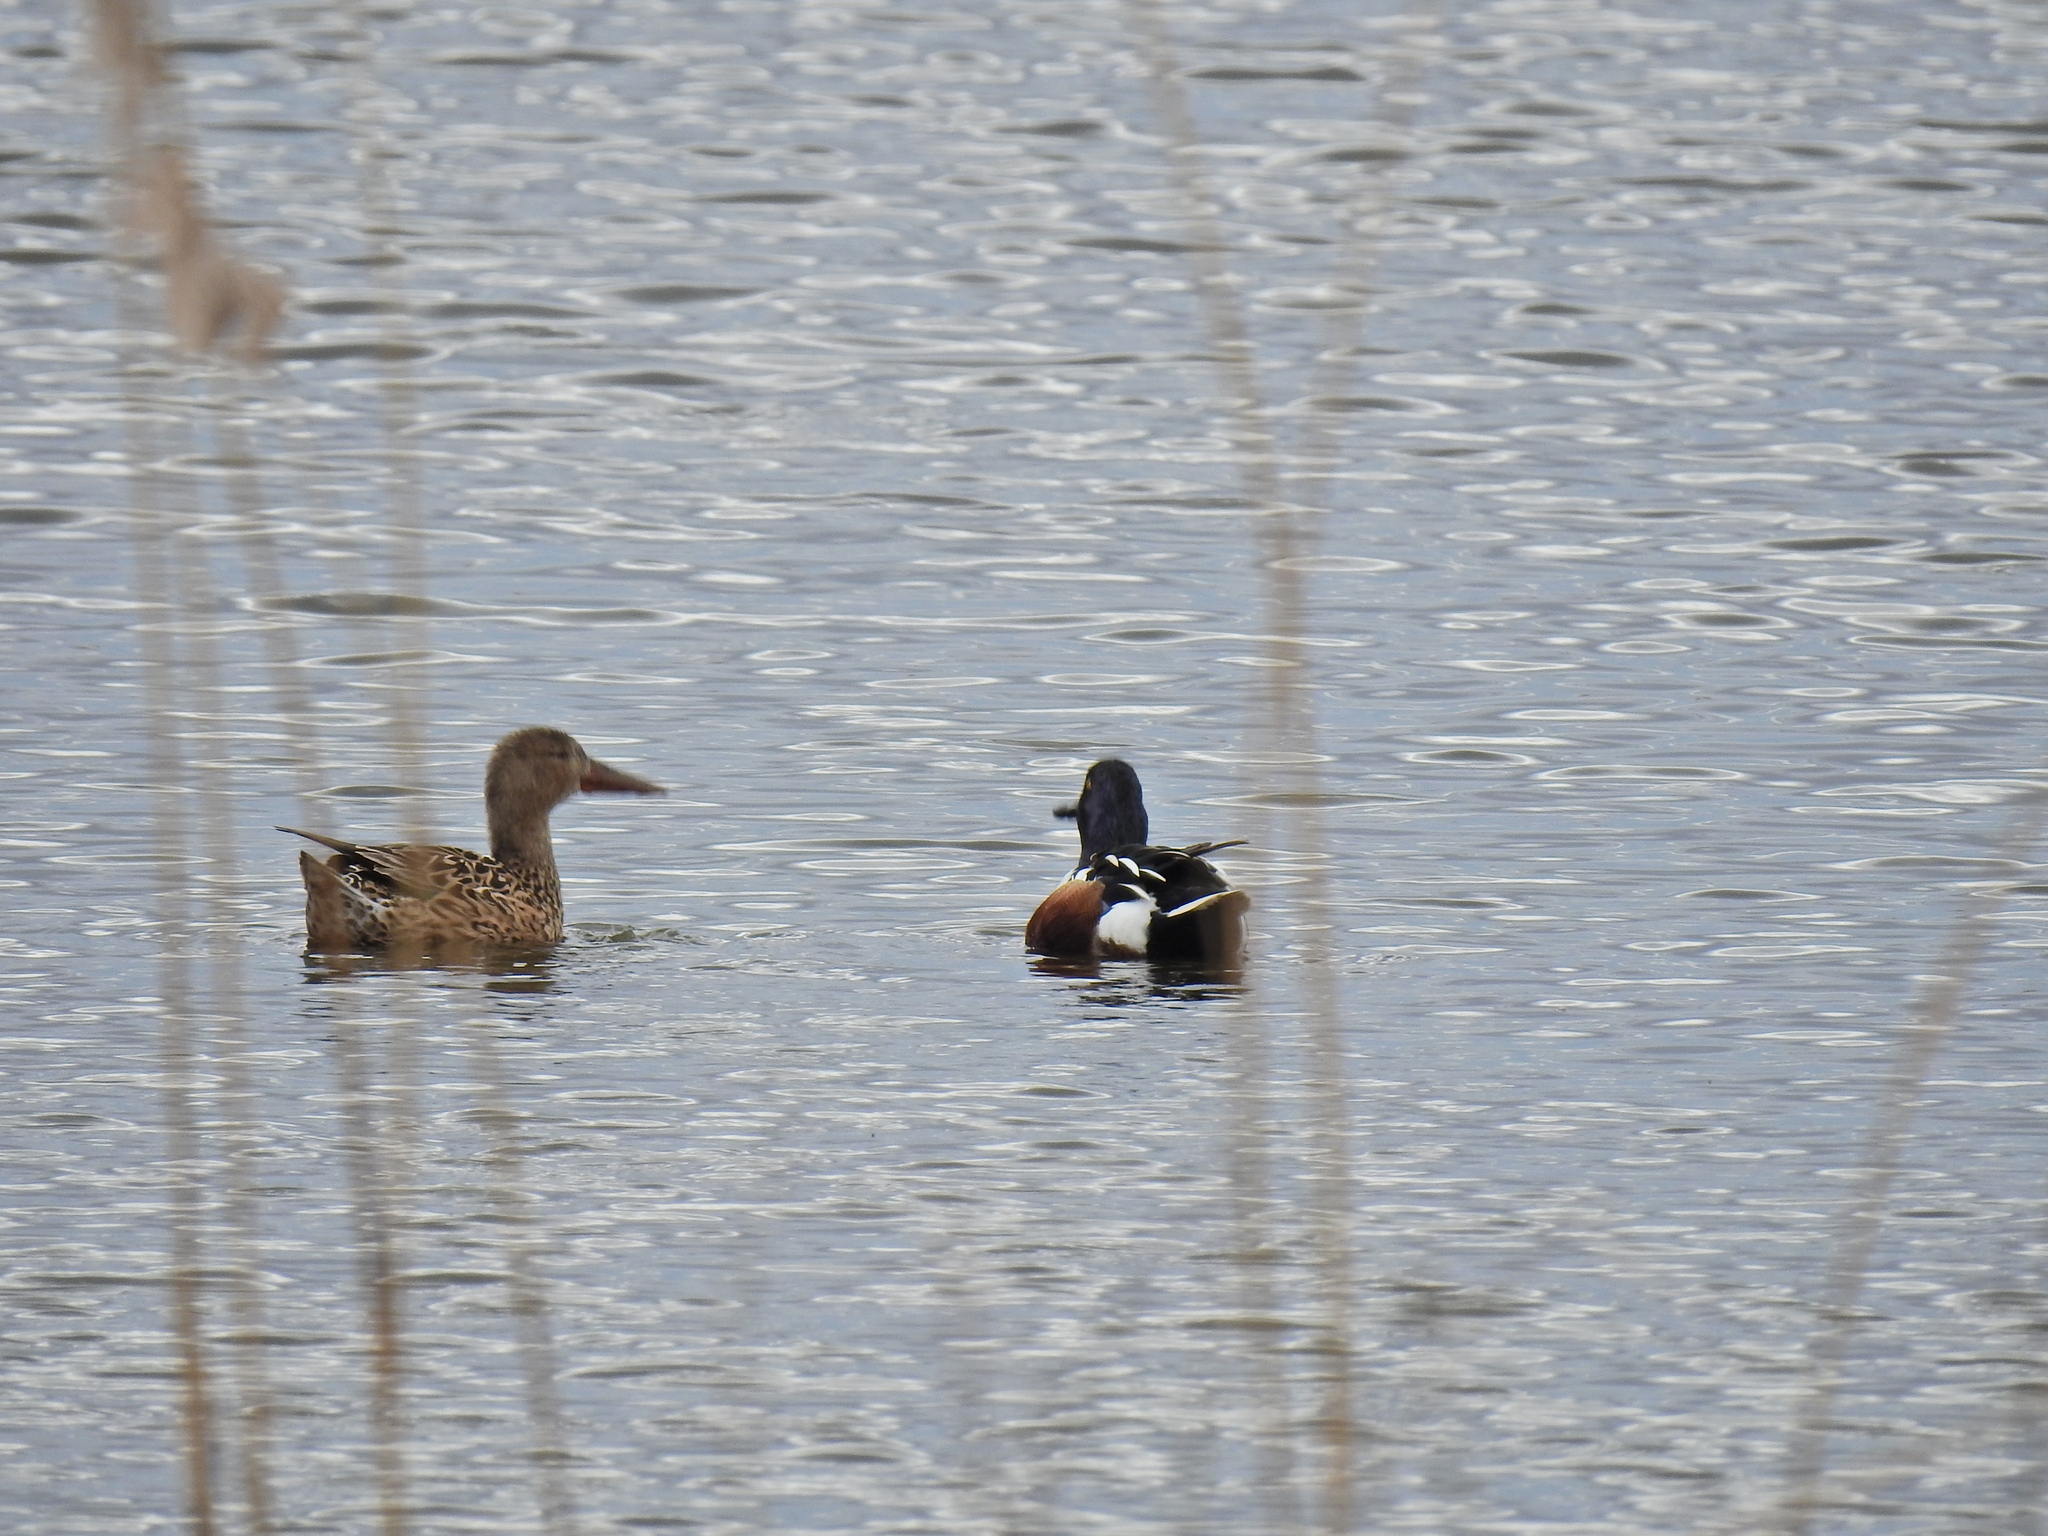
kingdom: Animalia
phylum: Chordata
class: Aves
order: Anseriformes
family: Anatidae
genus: Spatula
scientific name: Spatula clypeata
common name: Northern shoveler
